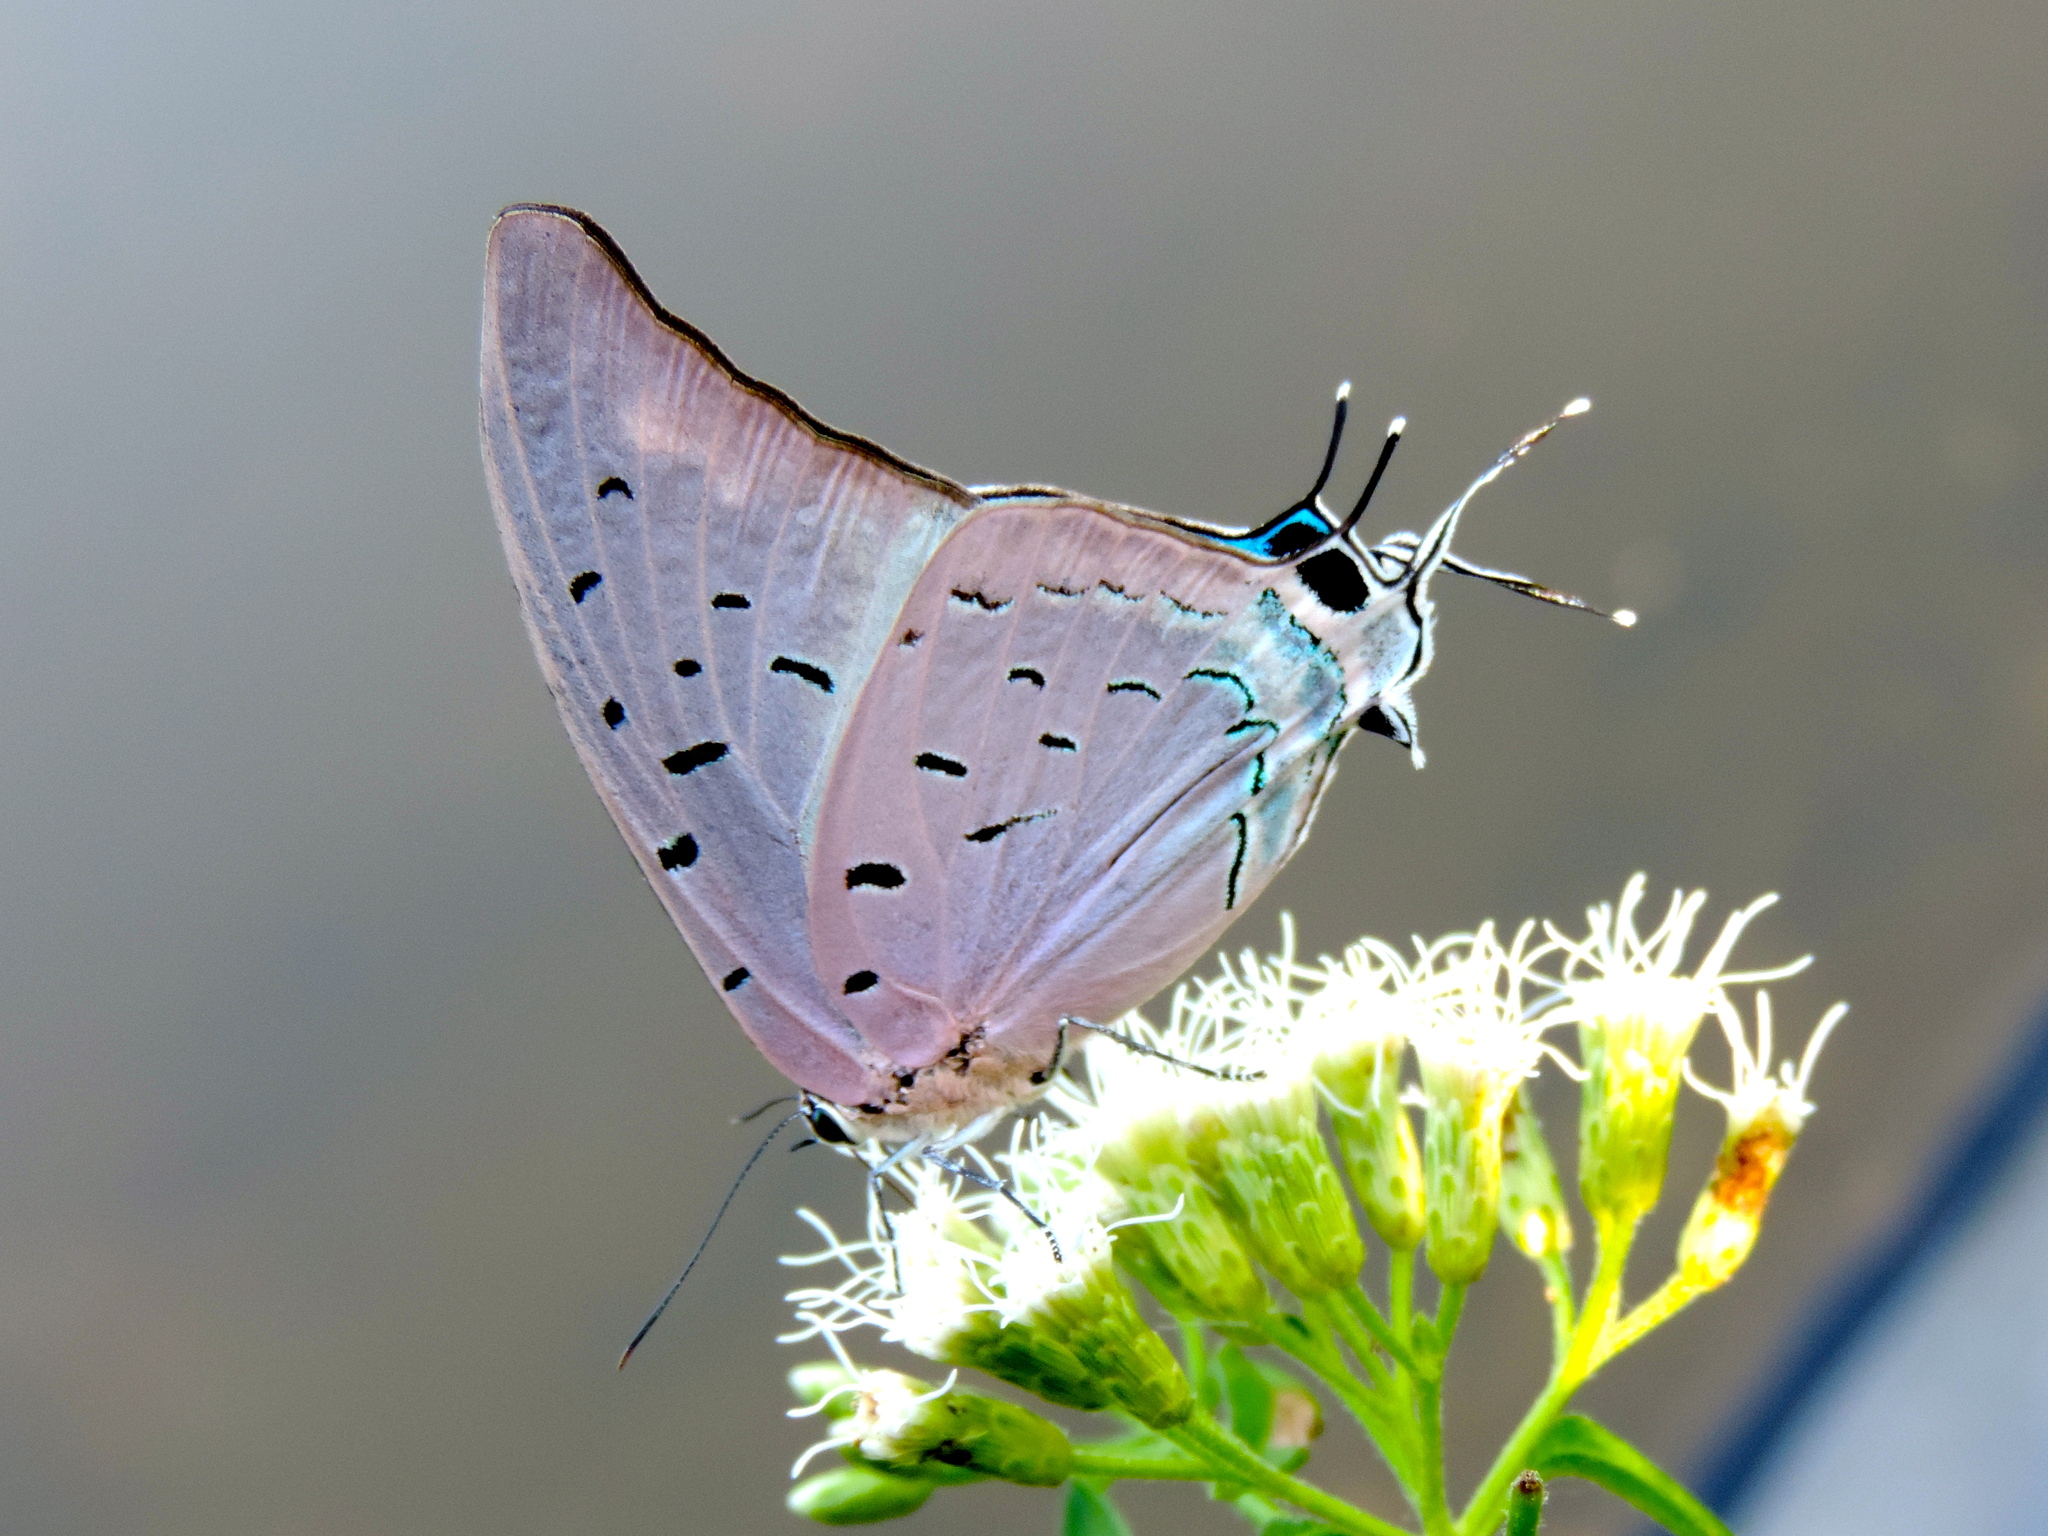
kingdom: Animalia
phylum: Arthropoda
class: Insecta
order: Lepidoptera
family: Lycaenidae
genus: Pseudolycaena
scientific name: Pseudolycaena damo
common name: Sky-blue hairstreak
